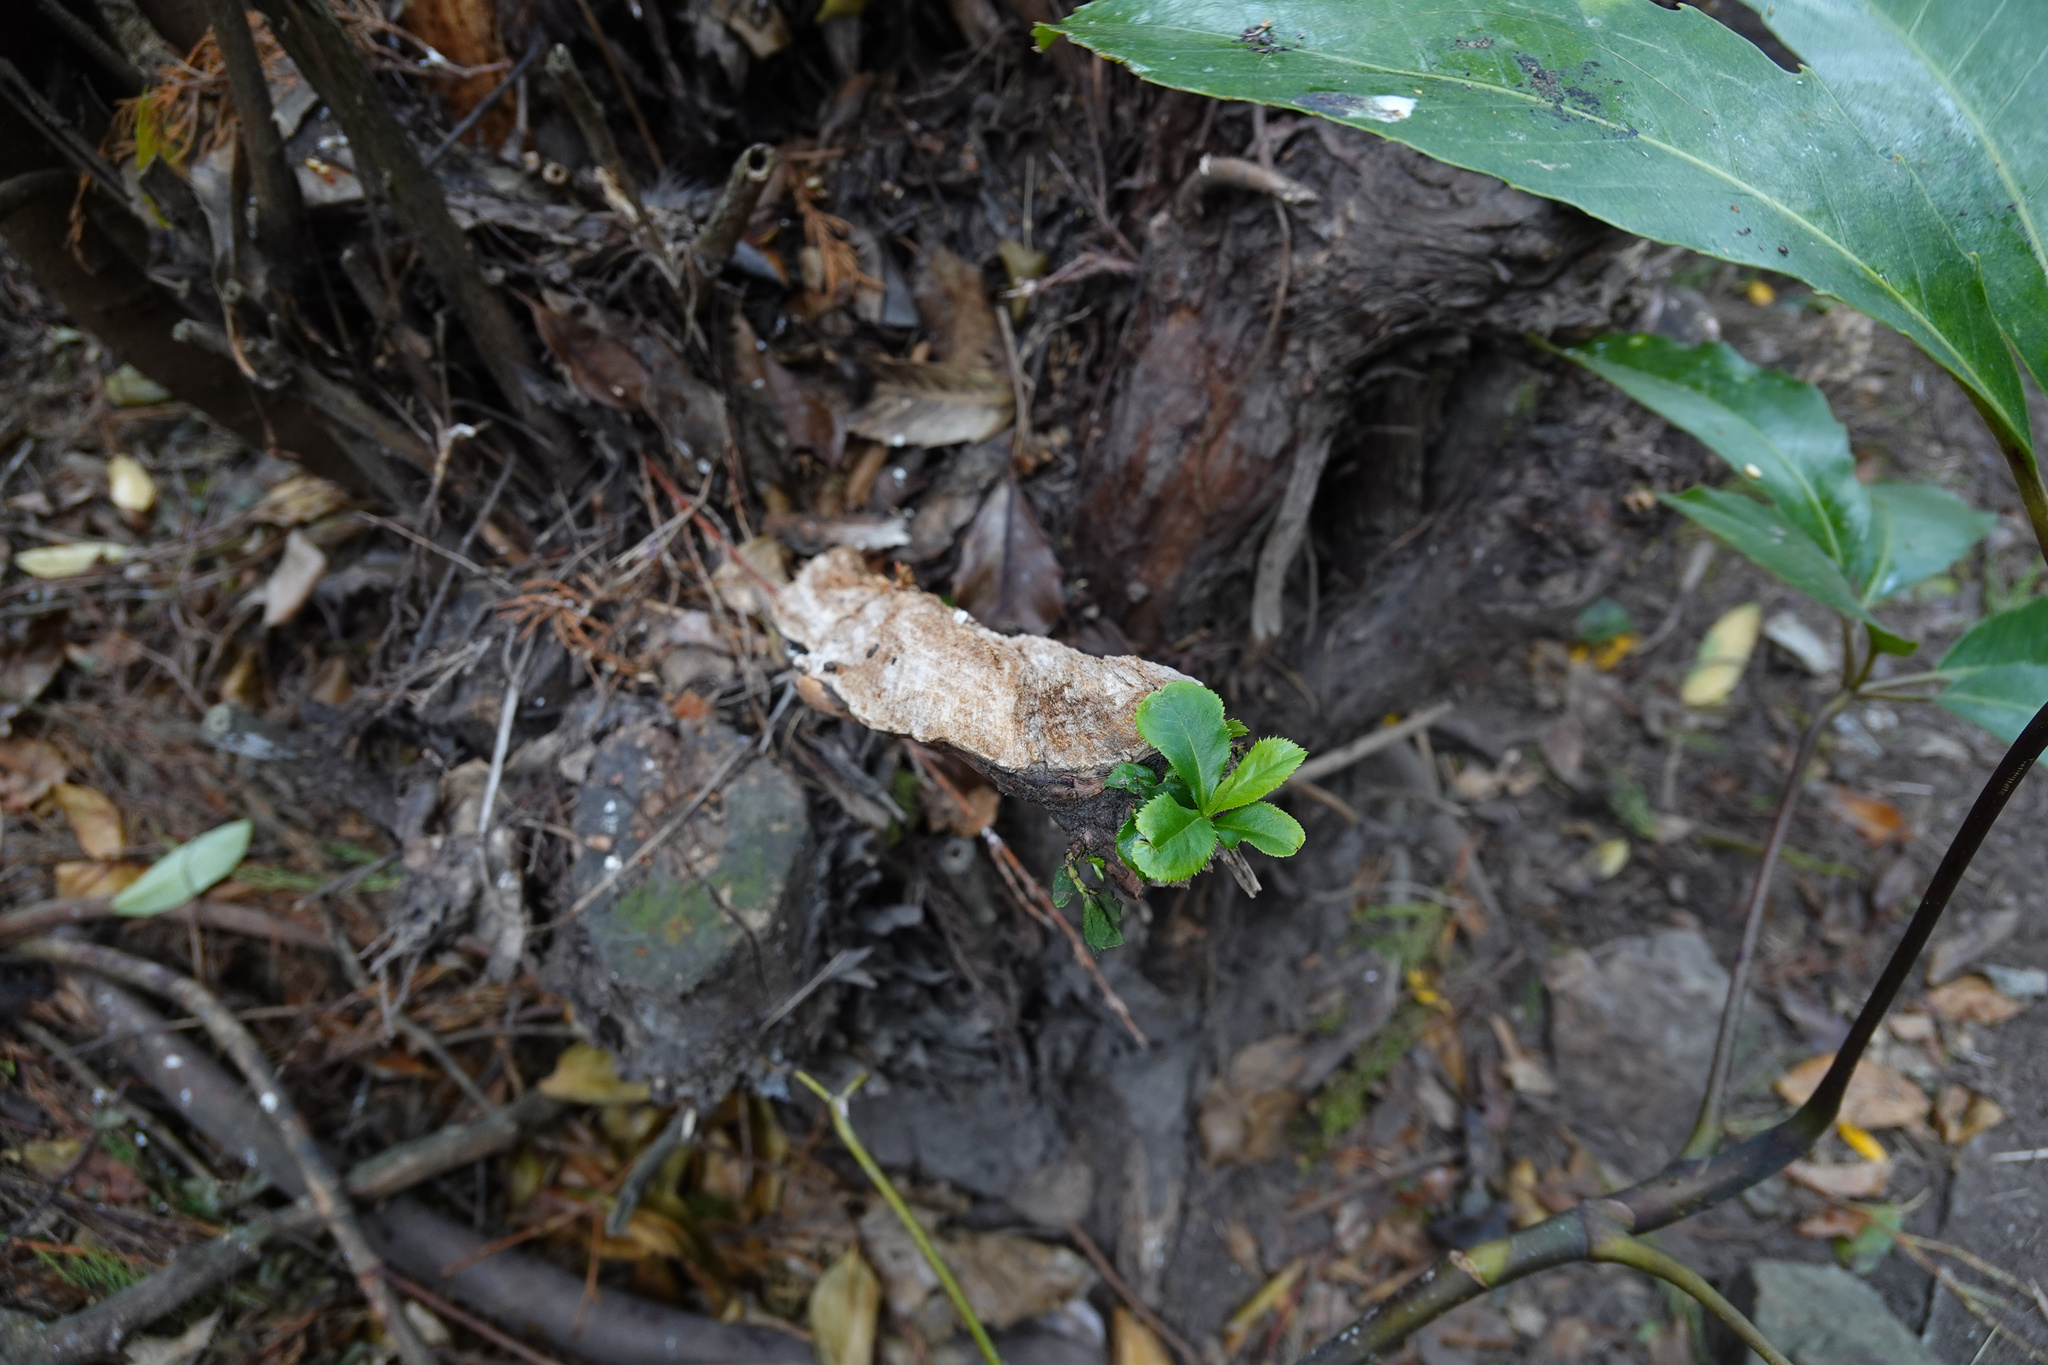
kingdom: Plantae
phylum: Tracheophyta
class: Magnoliopsida
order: Escalloniales
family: Escalloniaceae
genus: Escallonia
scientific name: Escallonia rubra
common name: Redclaws
